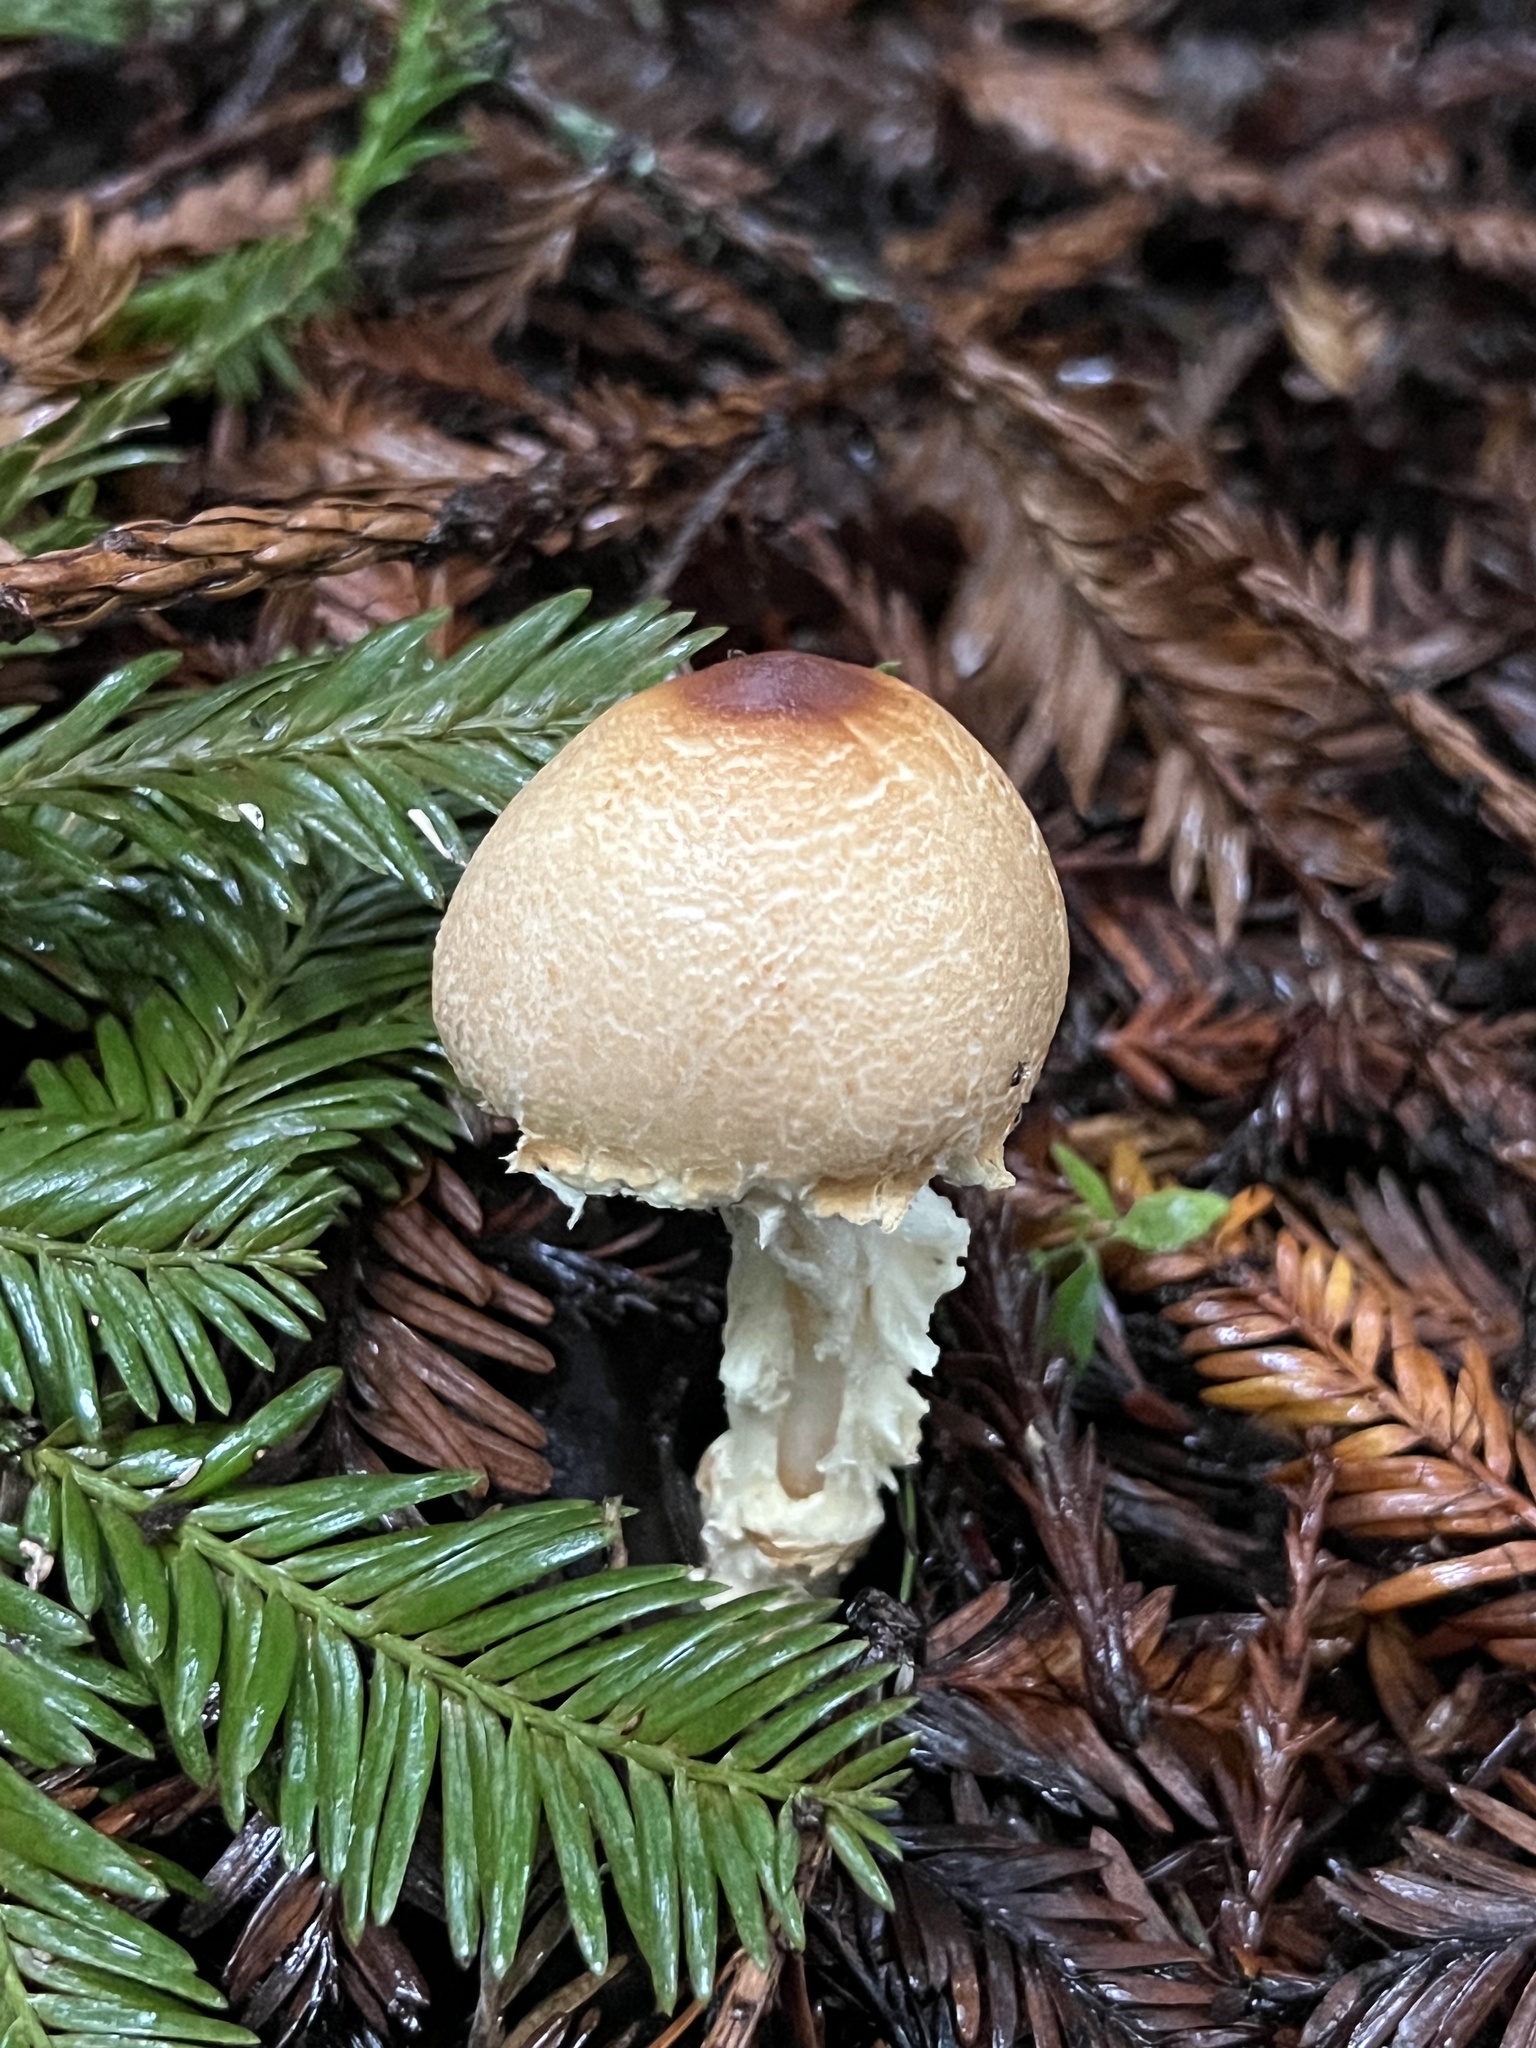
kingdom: Fungi
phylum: Basidiomycota
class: Agaricomycetes
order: Agaricales
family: Agaricaceae
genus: Lepiota
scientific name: Lepiota magnispora
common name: Yellowfoot dapperling
